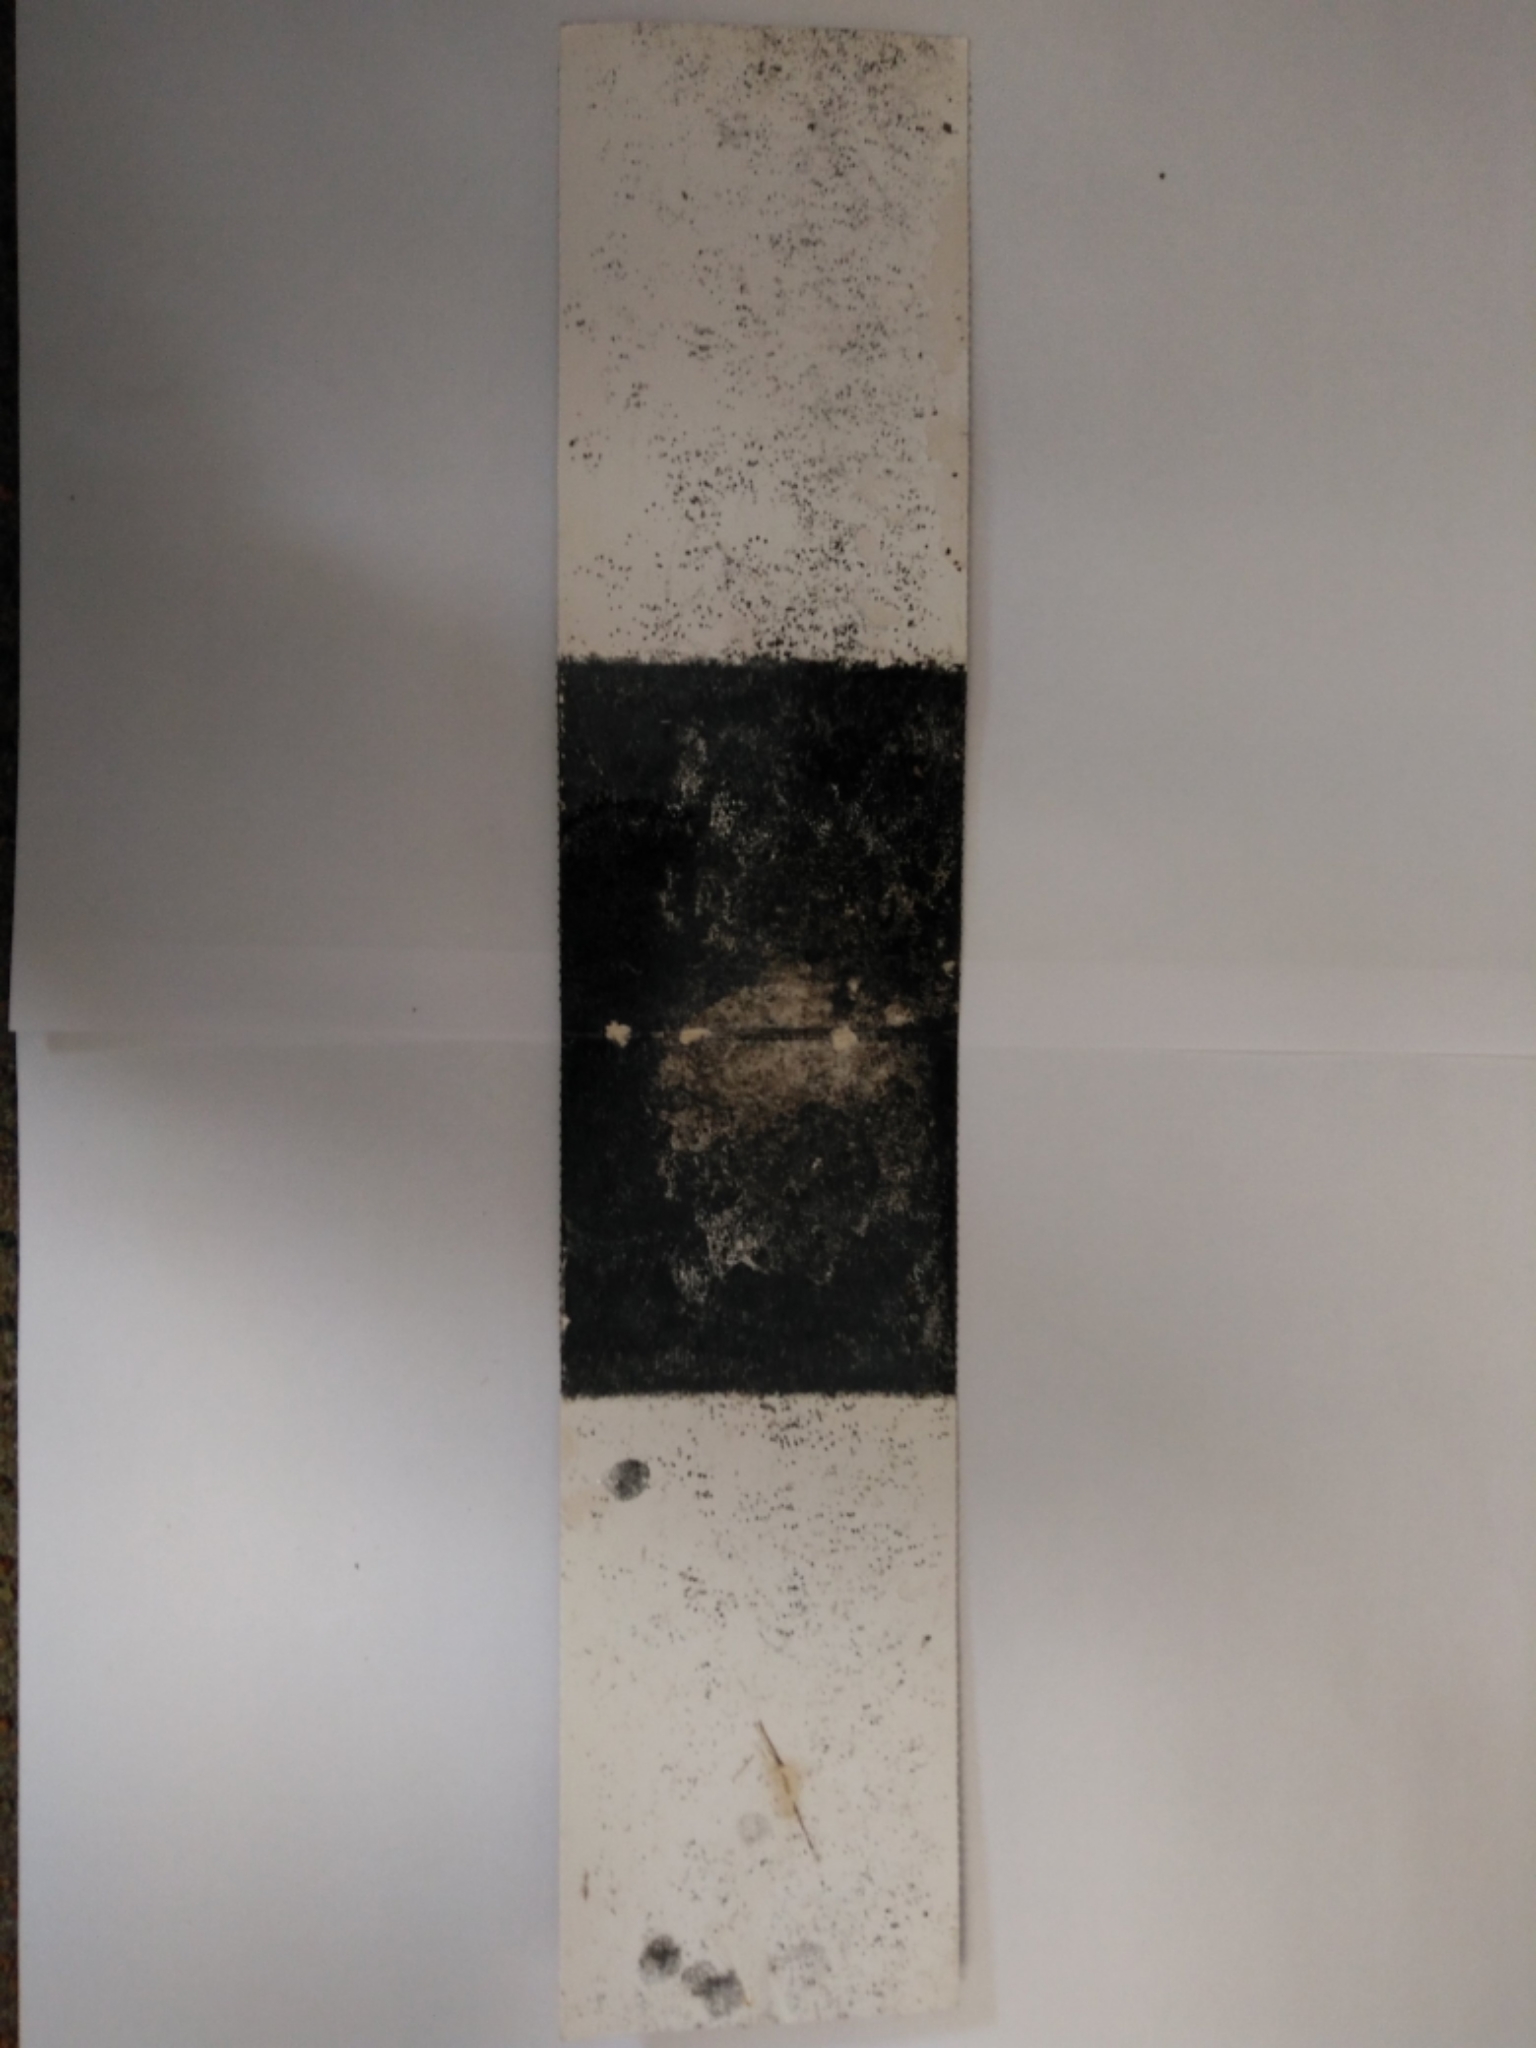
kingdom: Animalia
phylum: Chordata
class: Mammalia
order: Rodentia
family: Muridae
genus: Mus
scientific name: Mus musculus
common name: House mouse
